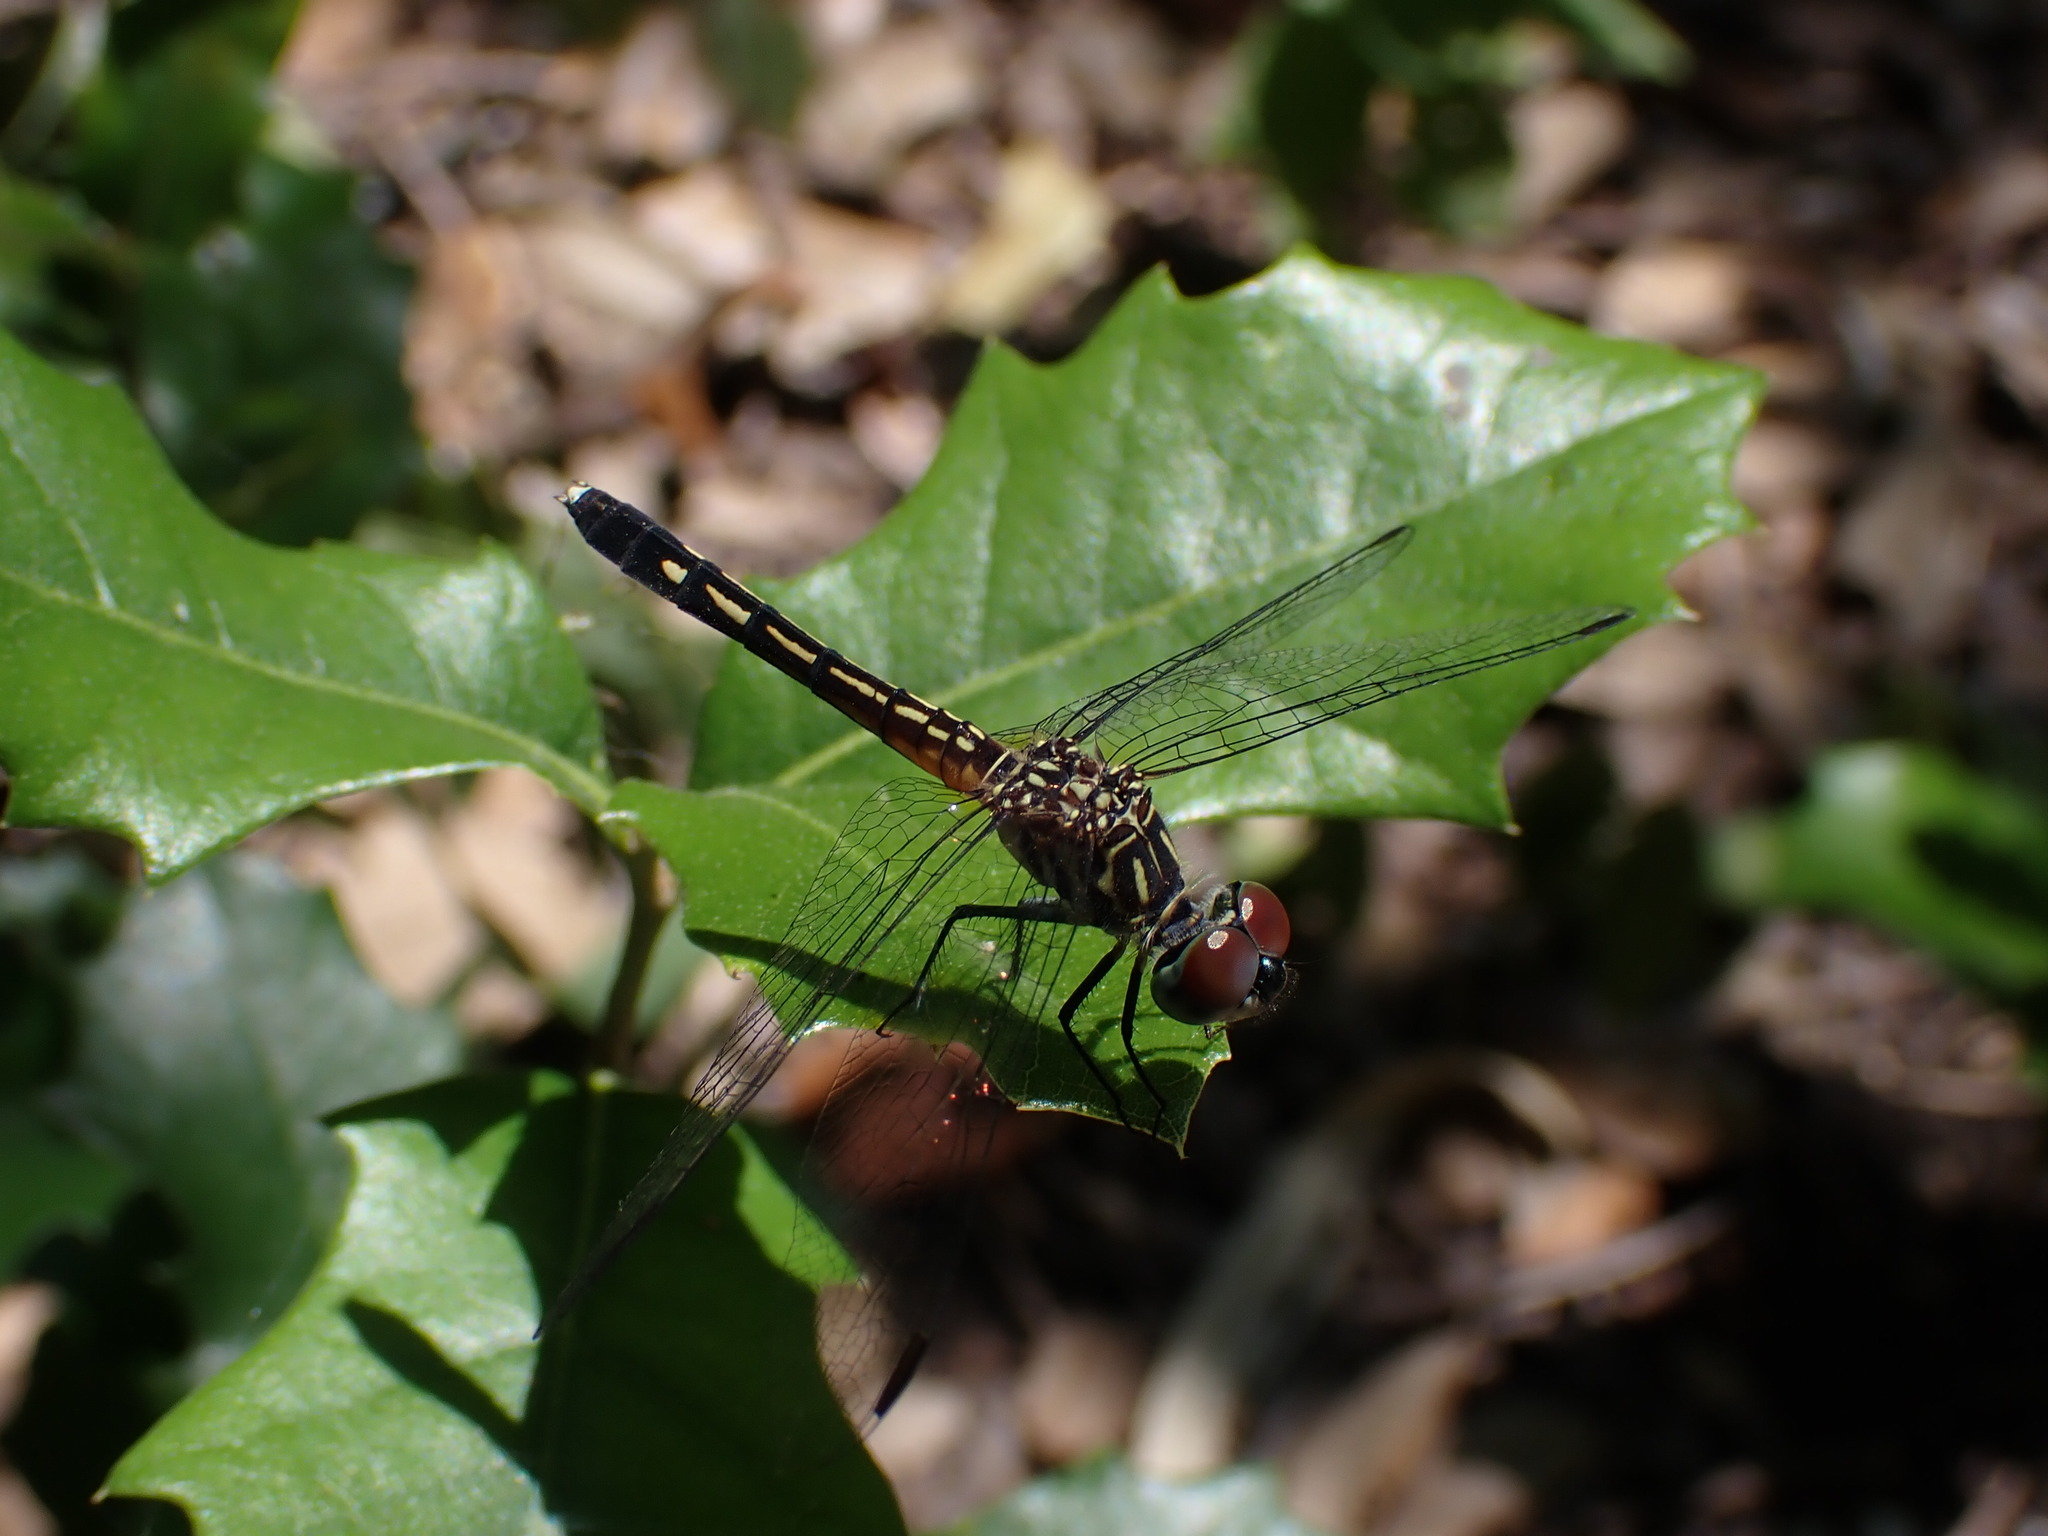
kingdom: Animalia
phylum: Arthropoda
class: Insecta
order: Odonata
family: Libellulidae
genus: Pachydiplax
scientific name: Pachydiplax longipennis
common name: Blue dasher
